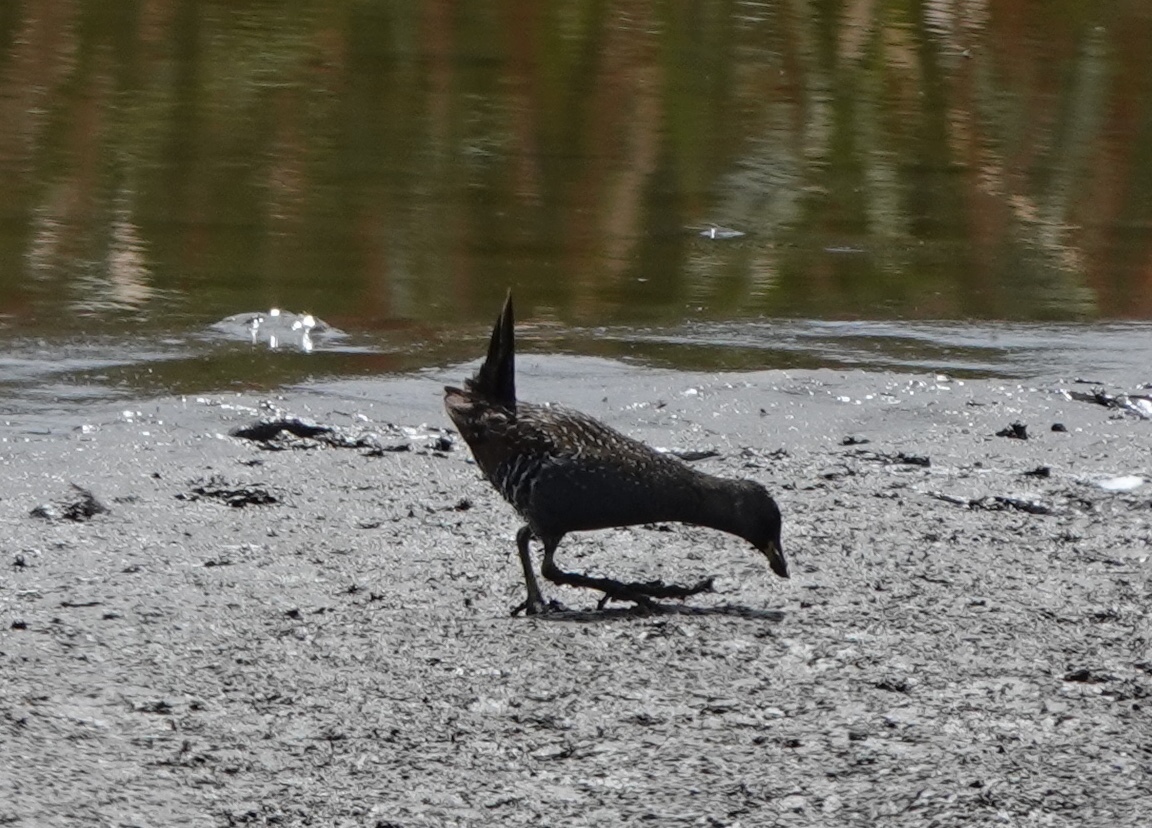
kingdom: Animalia
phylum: Chordata
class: Aves
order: Gruiformes
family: Rallidae
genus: Porzana
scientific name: Porzana fluminea
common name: Australian crake
